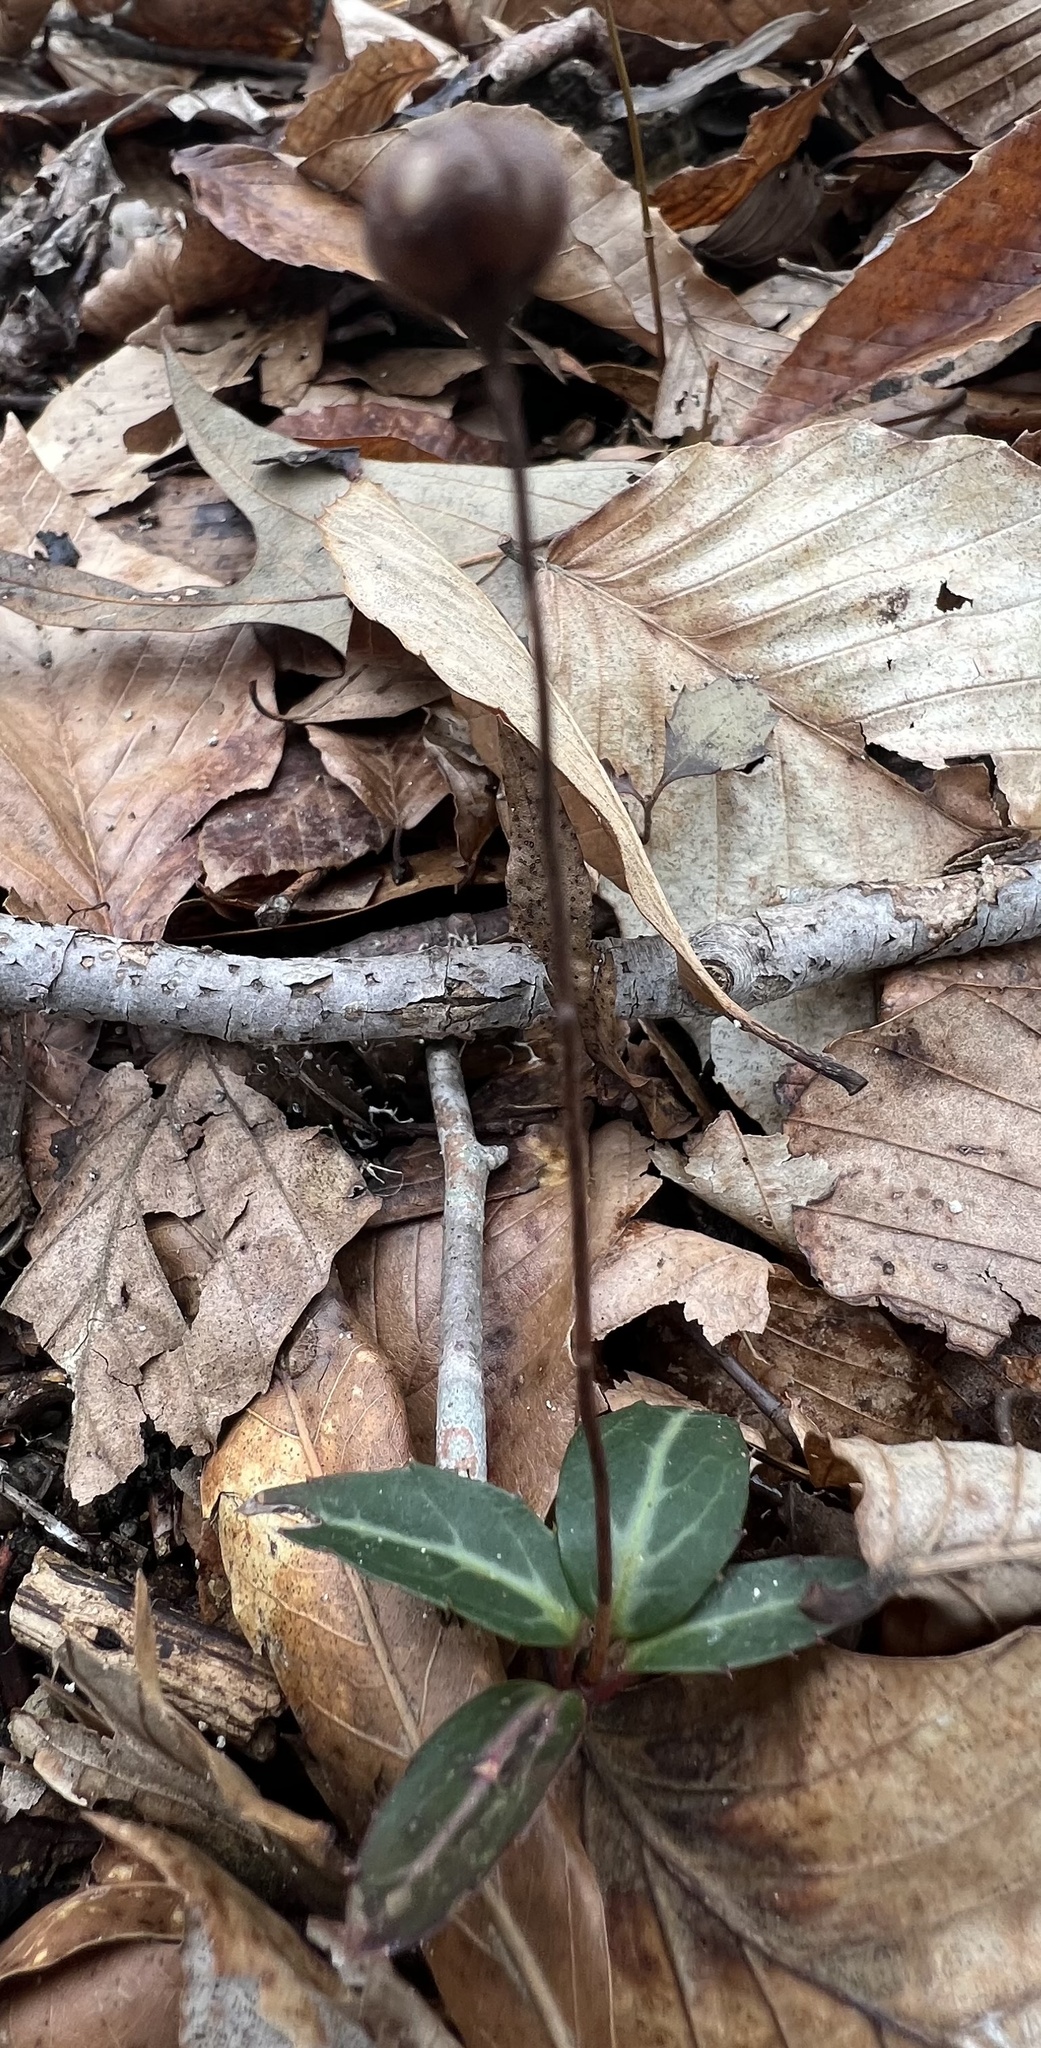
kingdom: Plantae
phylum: Tracheophyta
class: Magnoliopsida
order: Ericales
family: Ericaceae
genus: Chimaphila
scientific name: Chimaphila maculata
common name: Spotted pipsissewa
